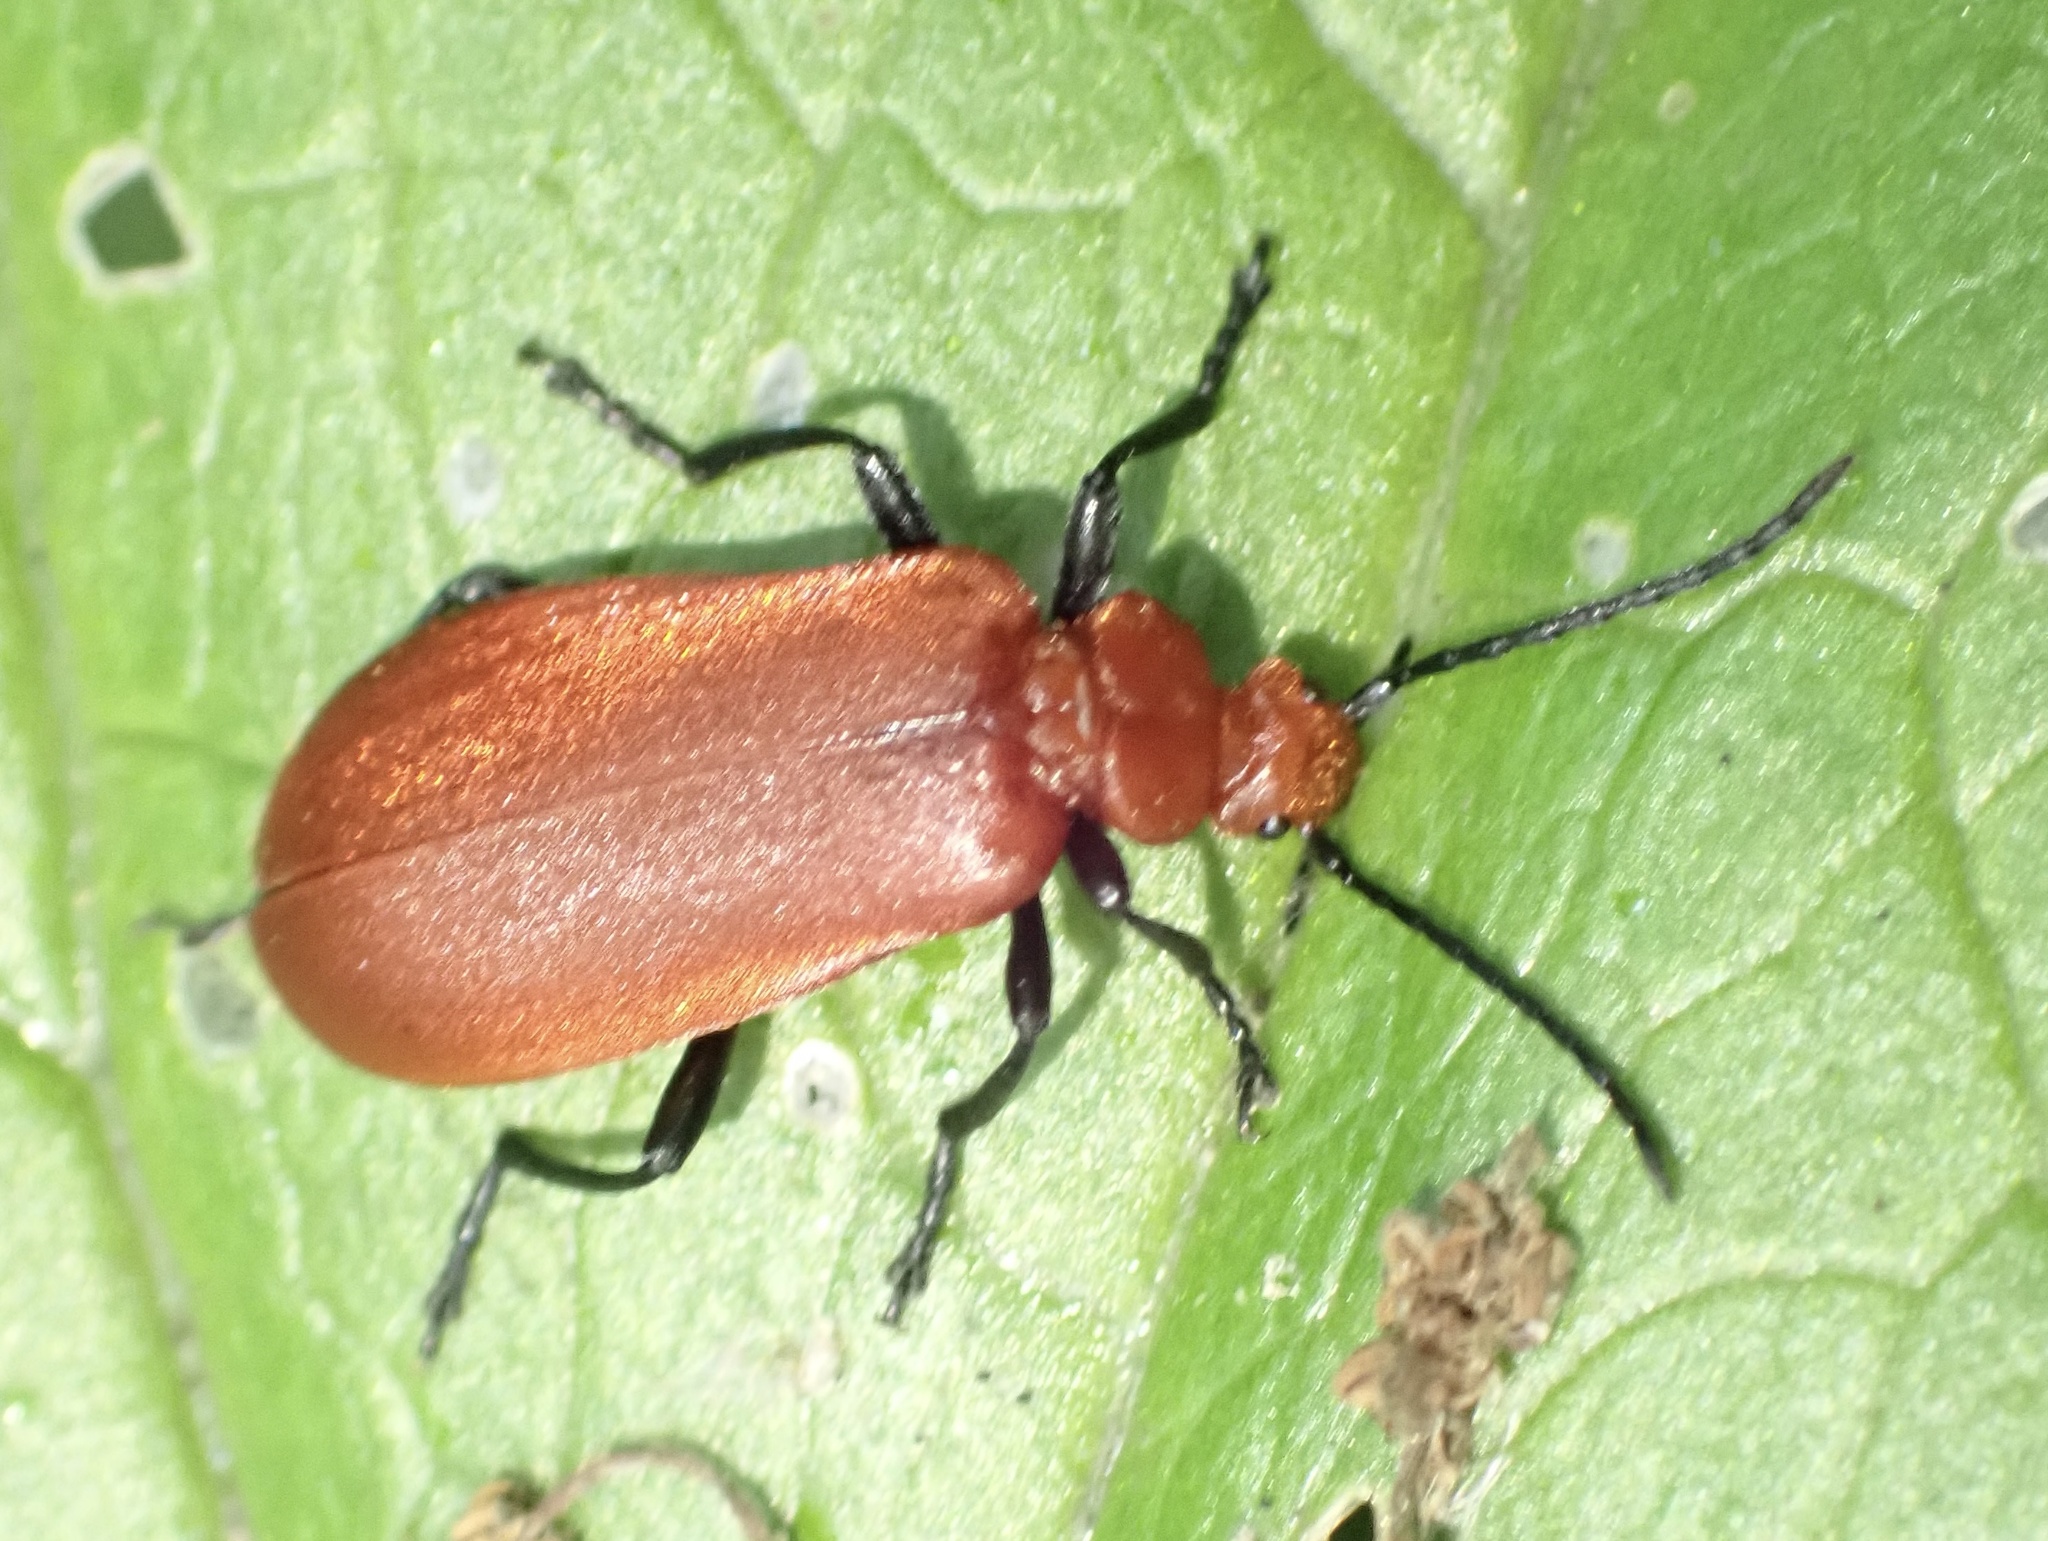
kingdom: Animalia
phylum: Arthropoda
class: Insecta
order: Coleoptera
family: Pyrochroidae
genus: Pyrochroa
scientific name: Pyrochroa serraticornis
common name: Red-headed cardinal beetle
